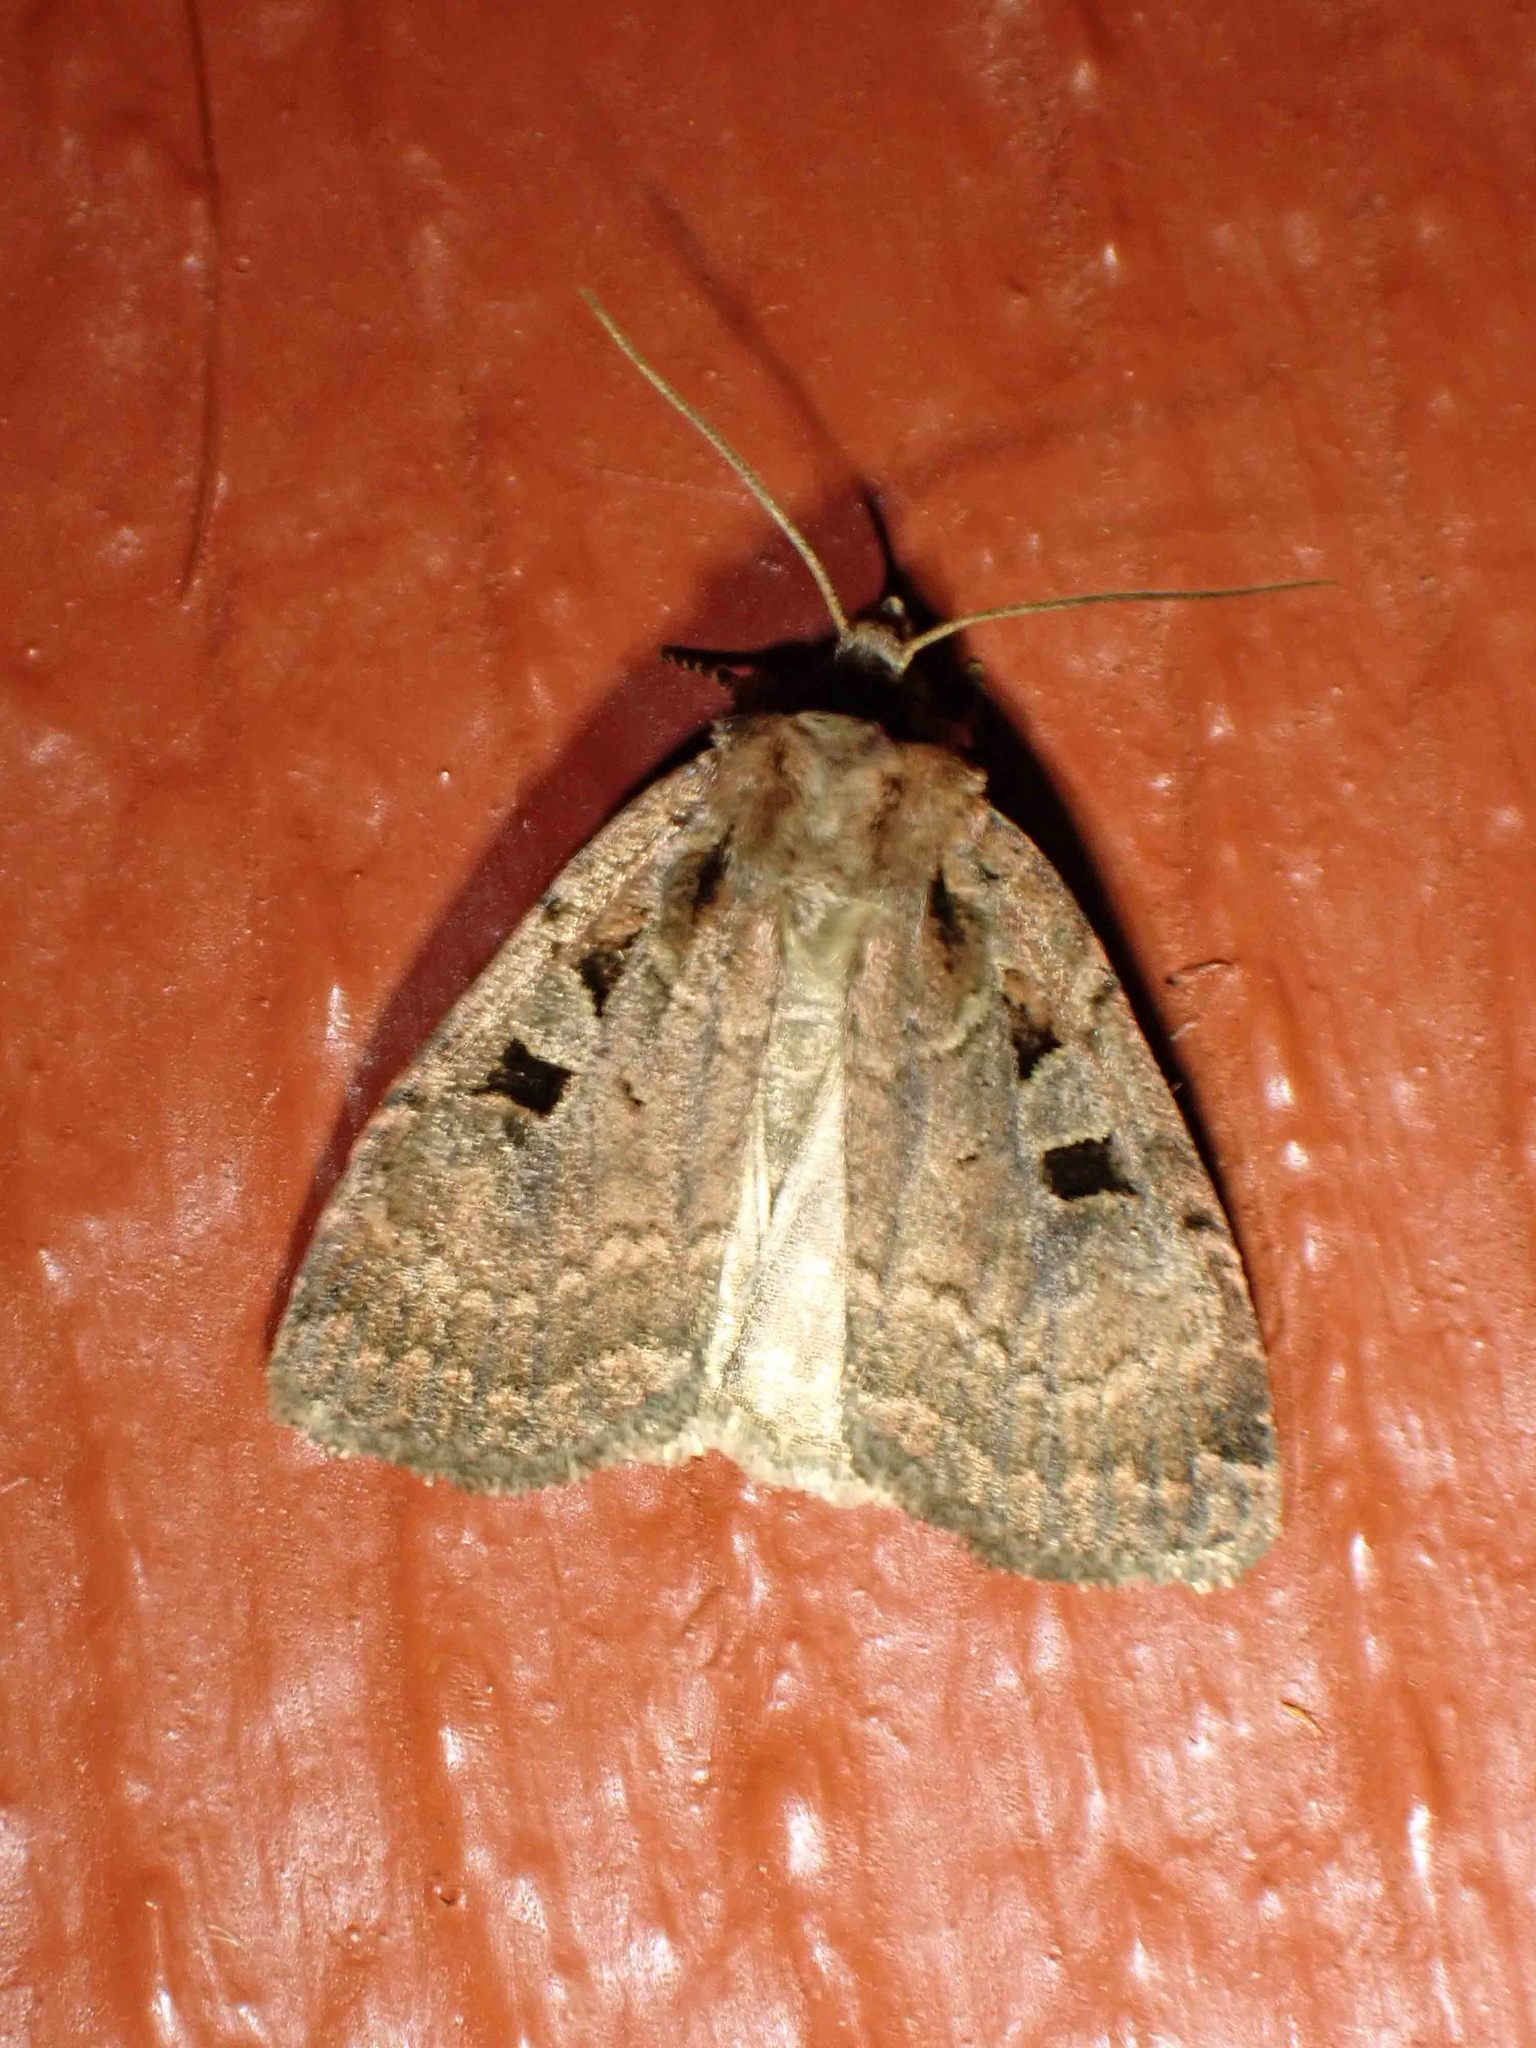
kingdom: Animalia
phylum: Arthropoda
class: Insecta
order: Lepidoptera
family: Noctuidae
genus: Eueretagrotis
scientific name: Eueretagrotis perattentus
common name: Two-spot dart moth
